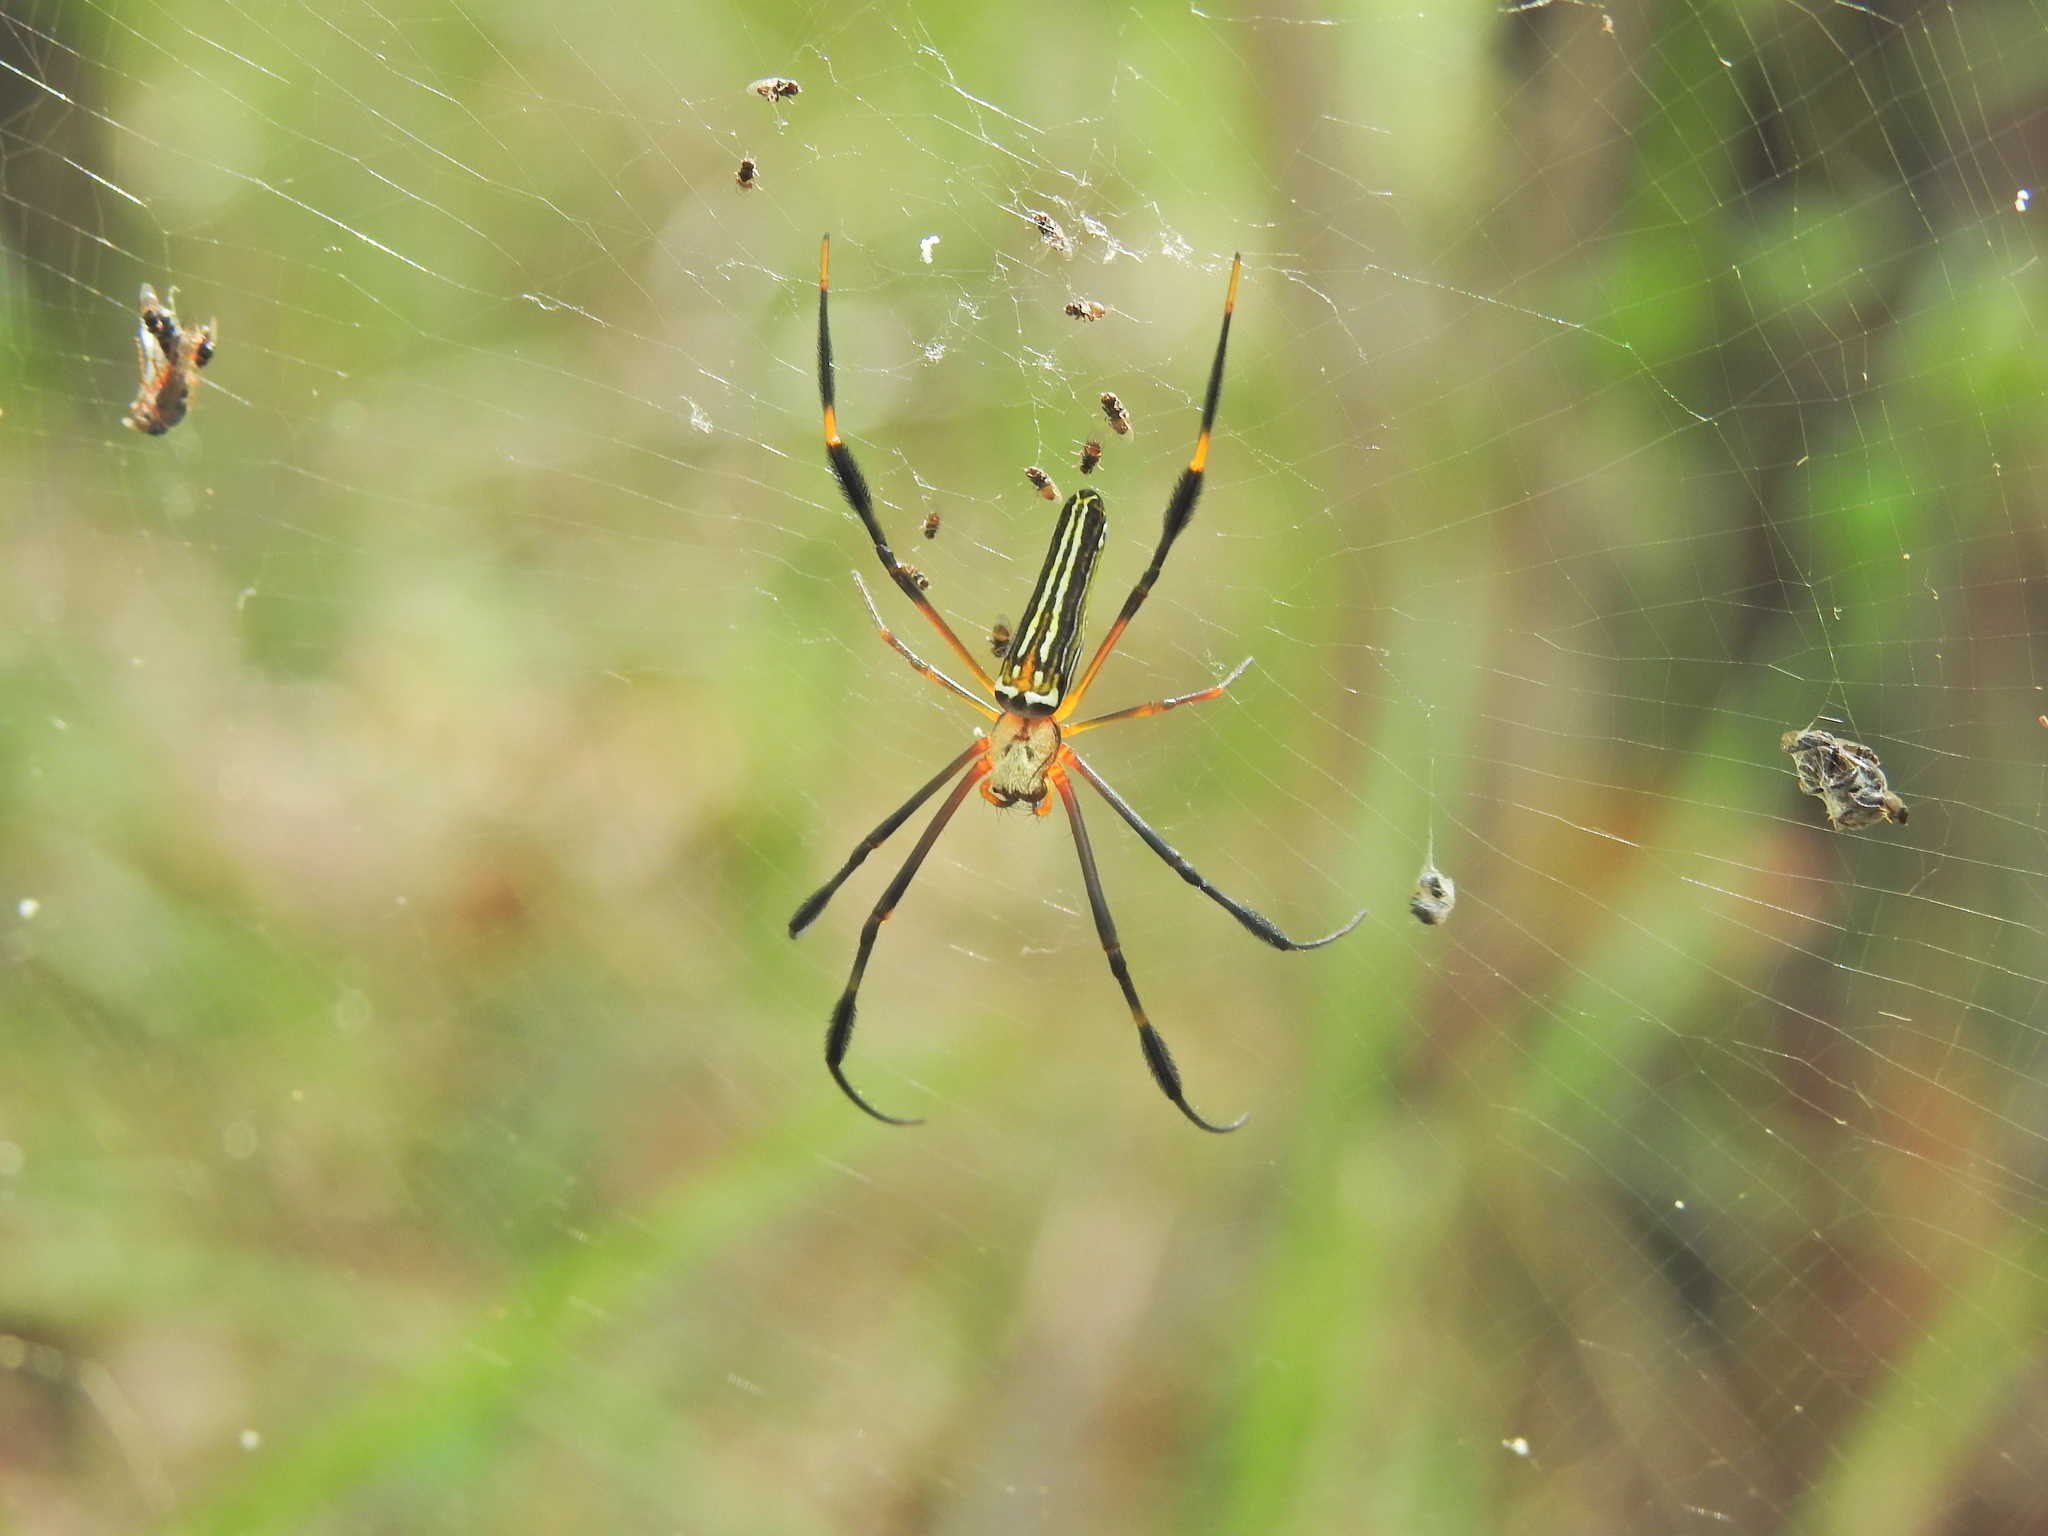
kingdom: Animalia
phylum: Arthropoda
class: Arachnida
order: Araneae
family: Araneidae
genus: Nephila
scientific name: Nephila pilipes
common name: Giant golden orb weaver
